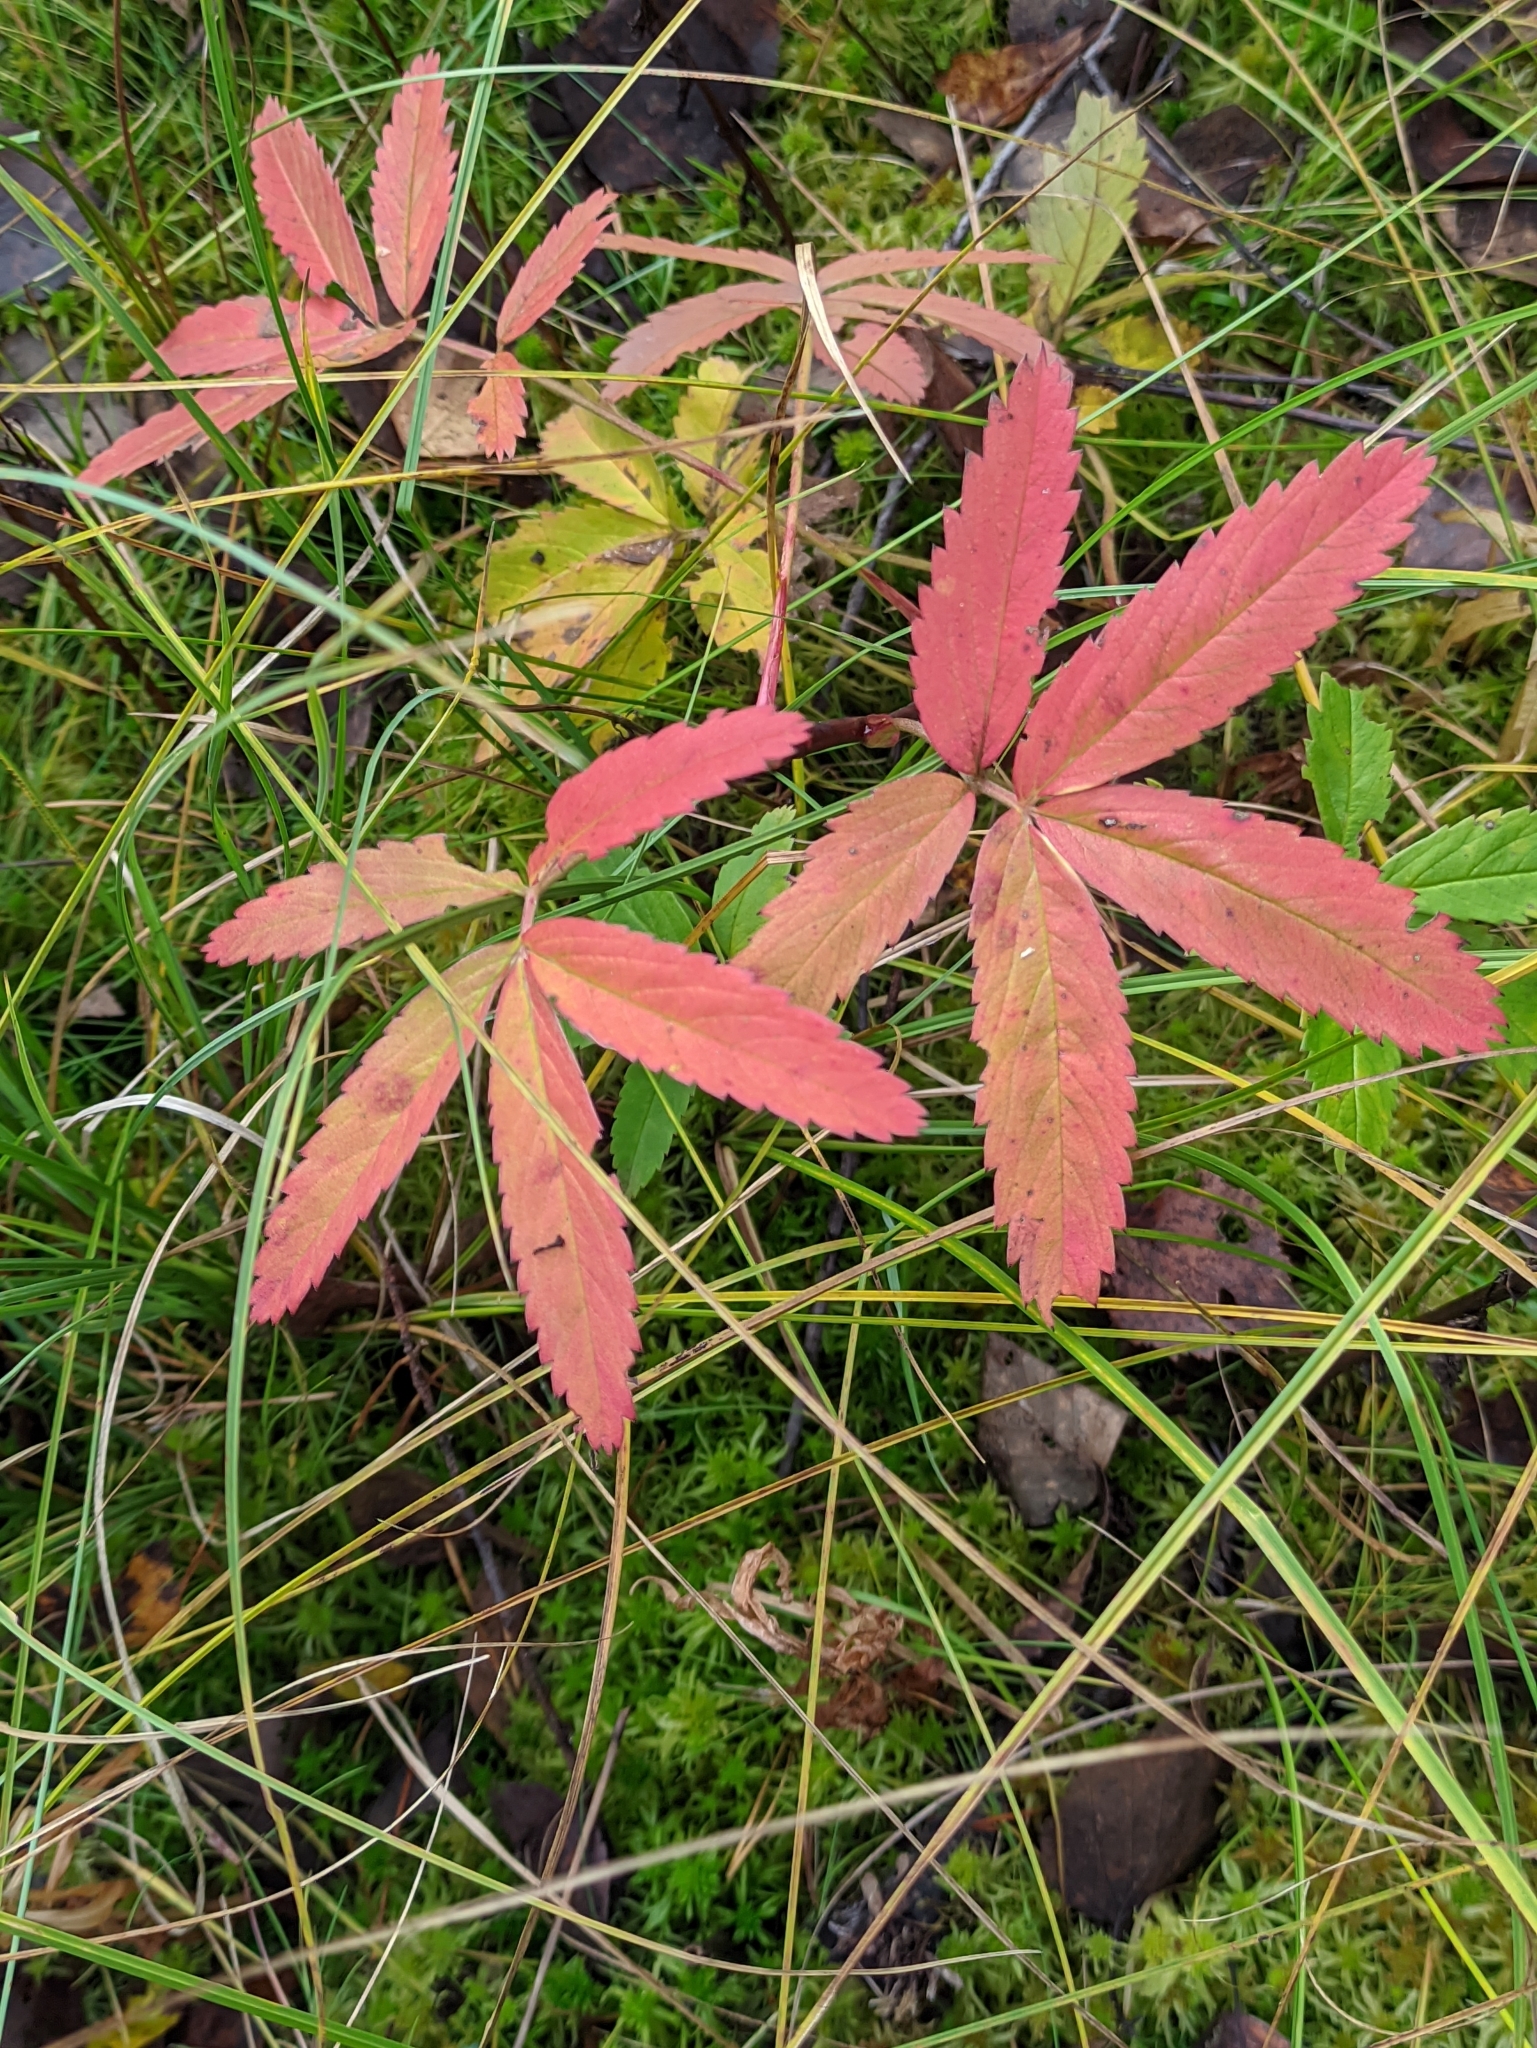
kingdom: Plantae
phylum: Tracheophyta
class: Magnoliopsida
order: Rosales
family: Rosaceae
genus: Comarum
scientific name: Comarum palustre
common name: Marsh cinquefoil
